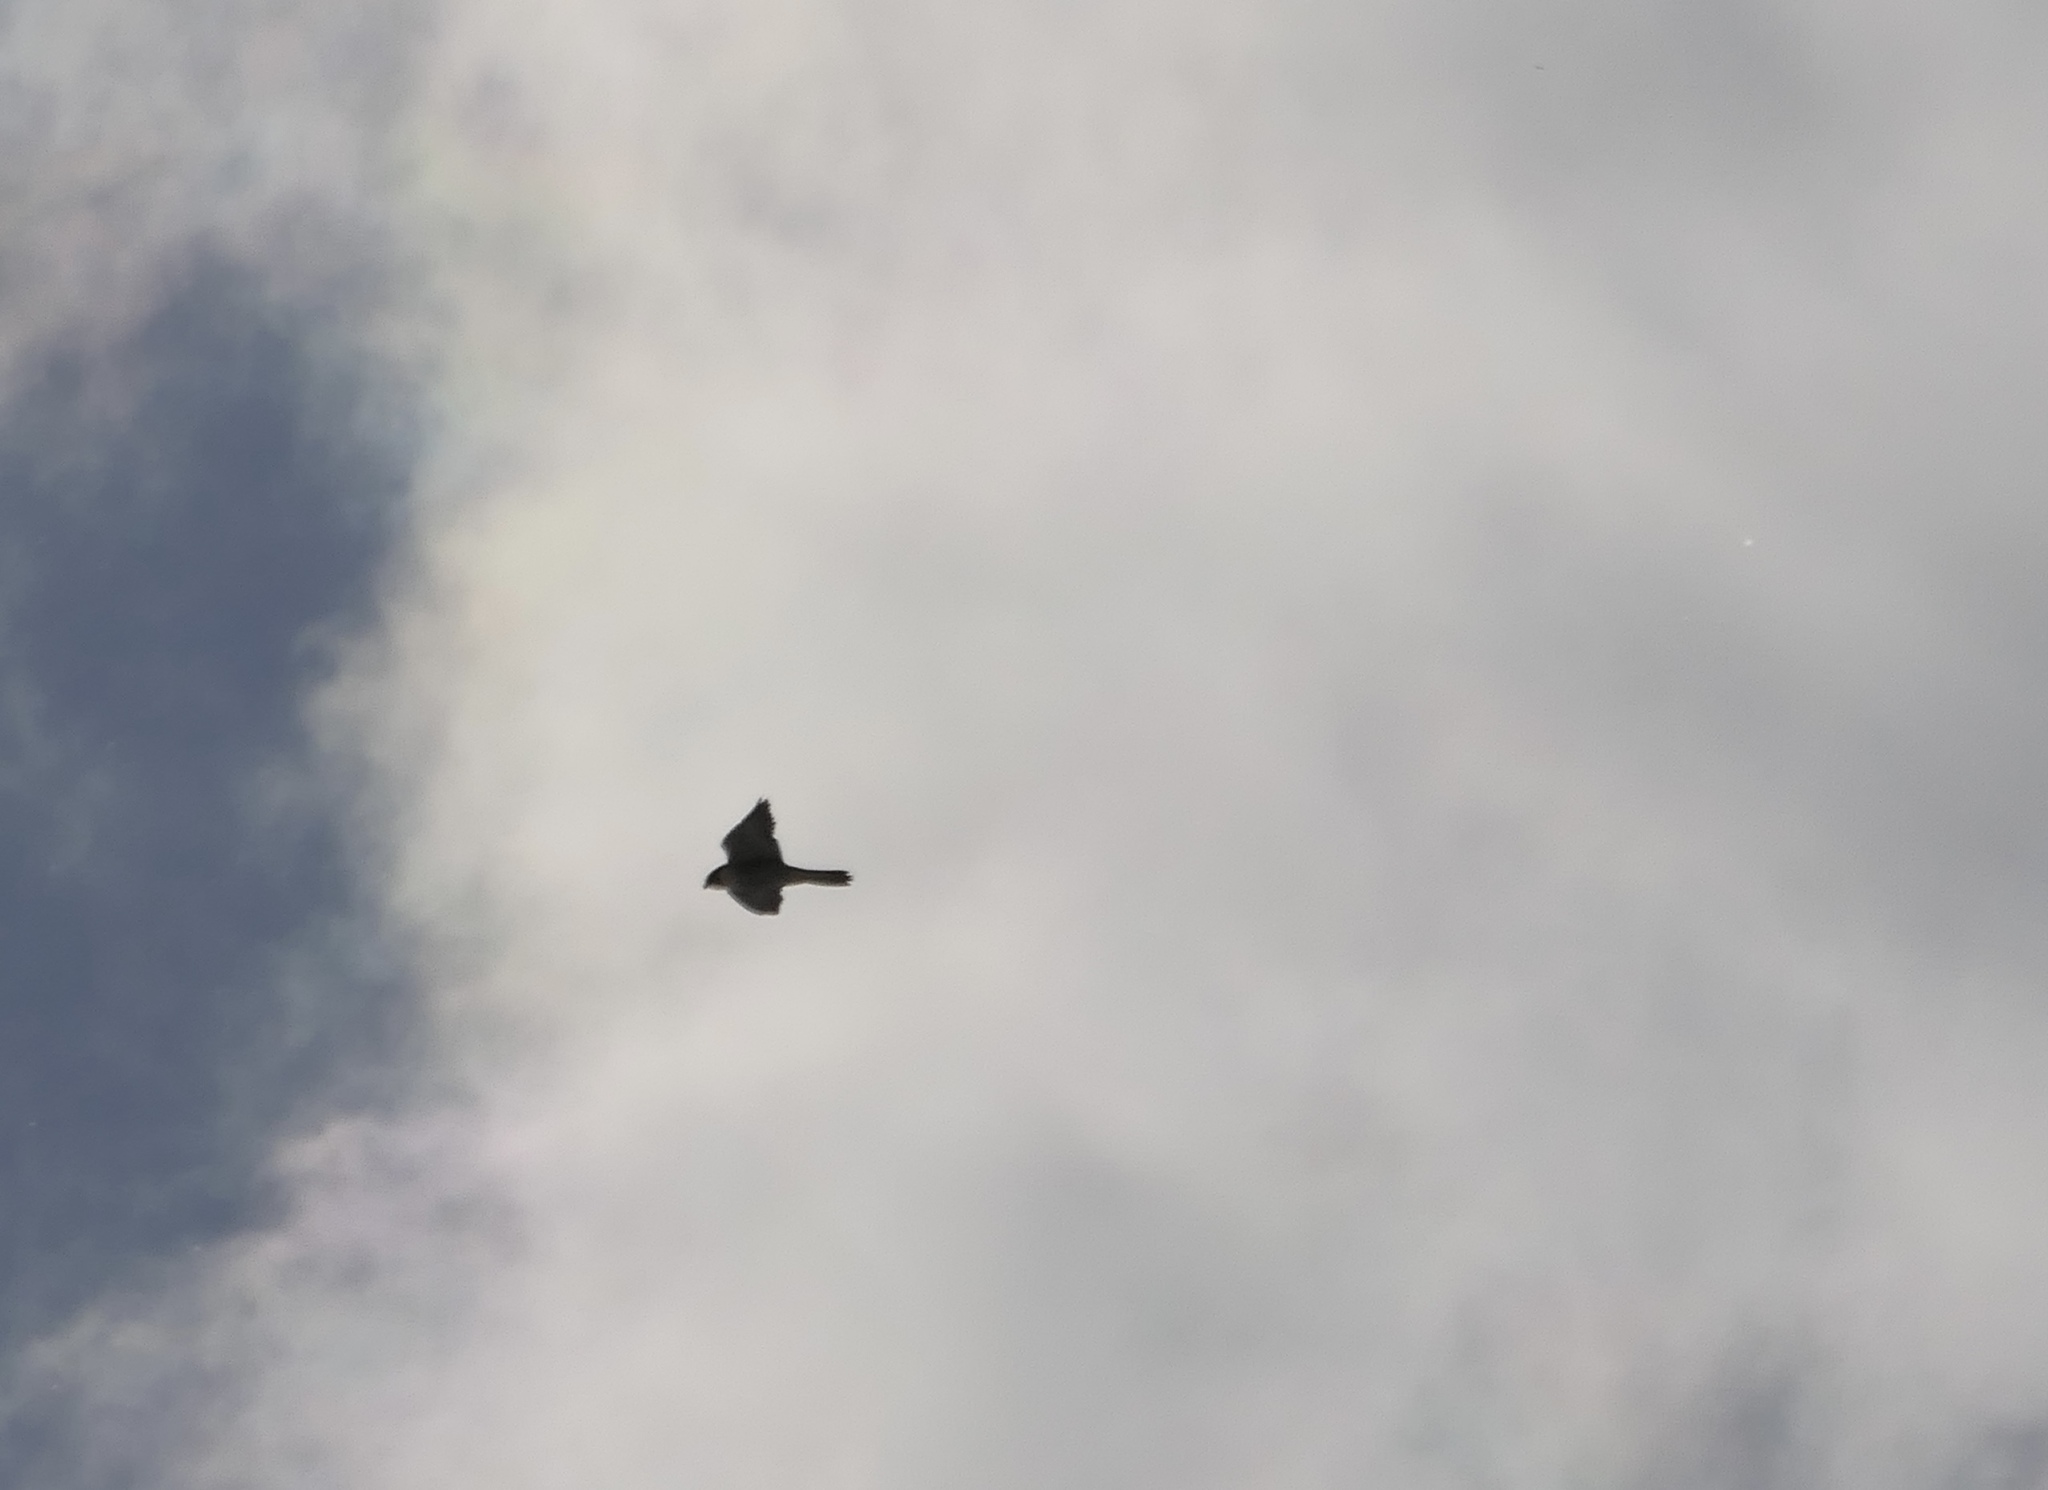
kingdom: Animalia
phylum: Chordata
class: Aves
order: Falconiformes
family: Falconidae
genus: Falco
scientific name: Falco peregrinus
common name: Peregrine falcon
